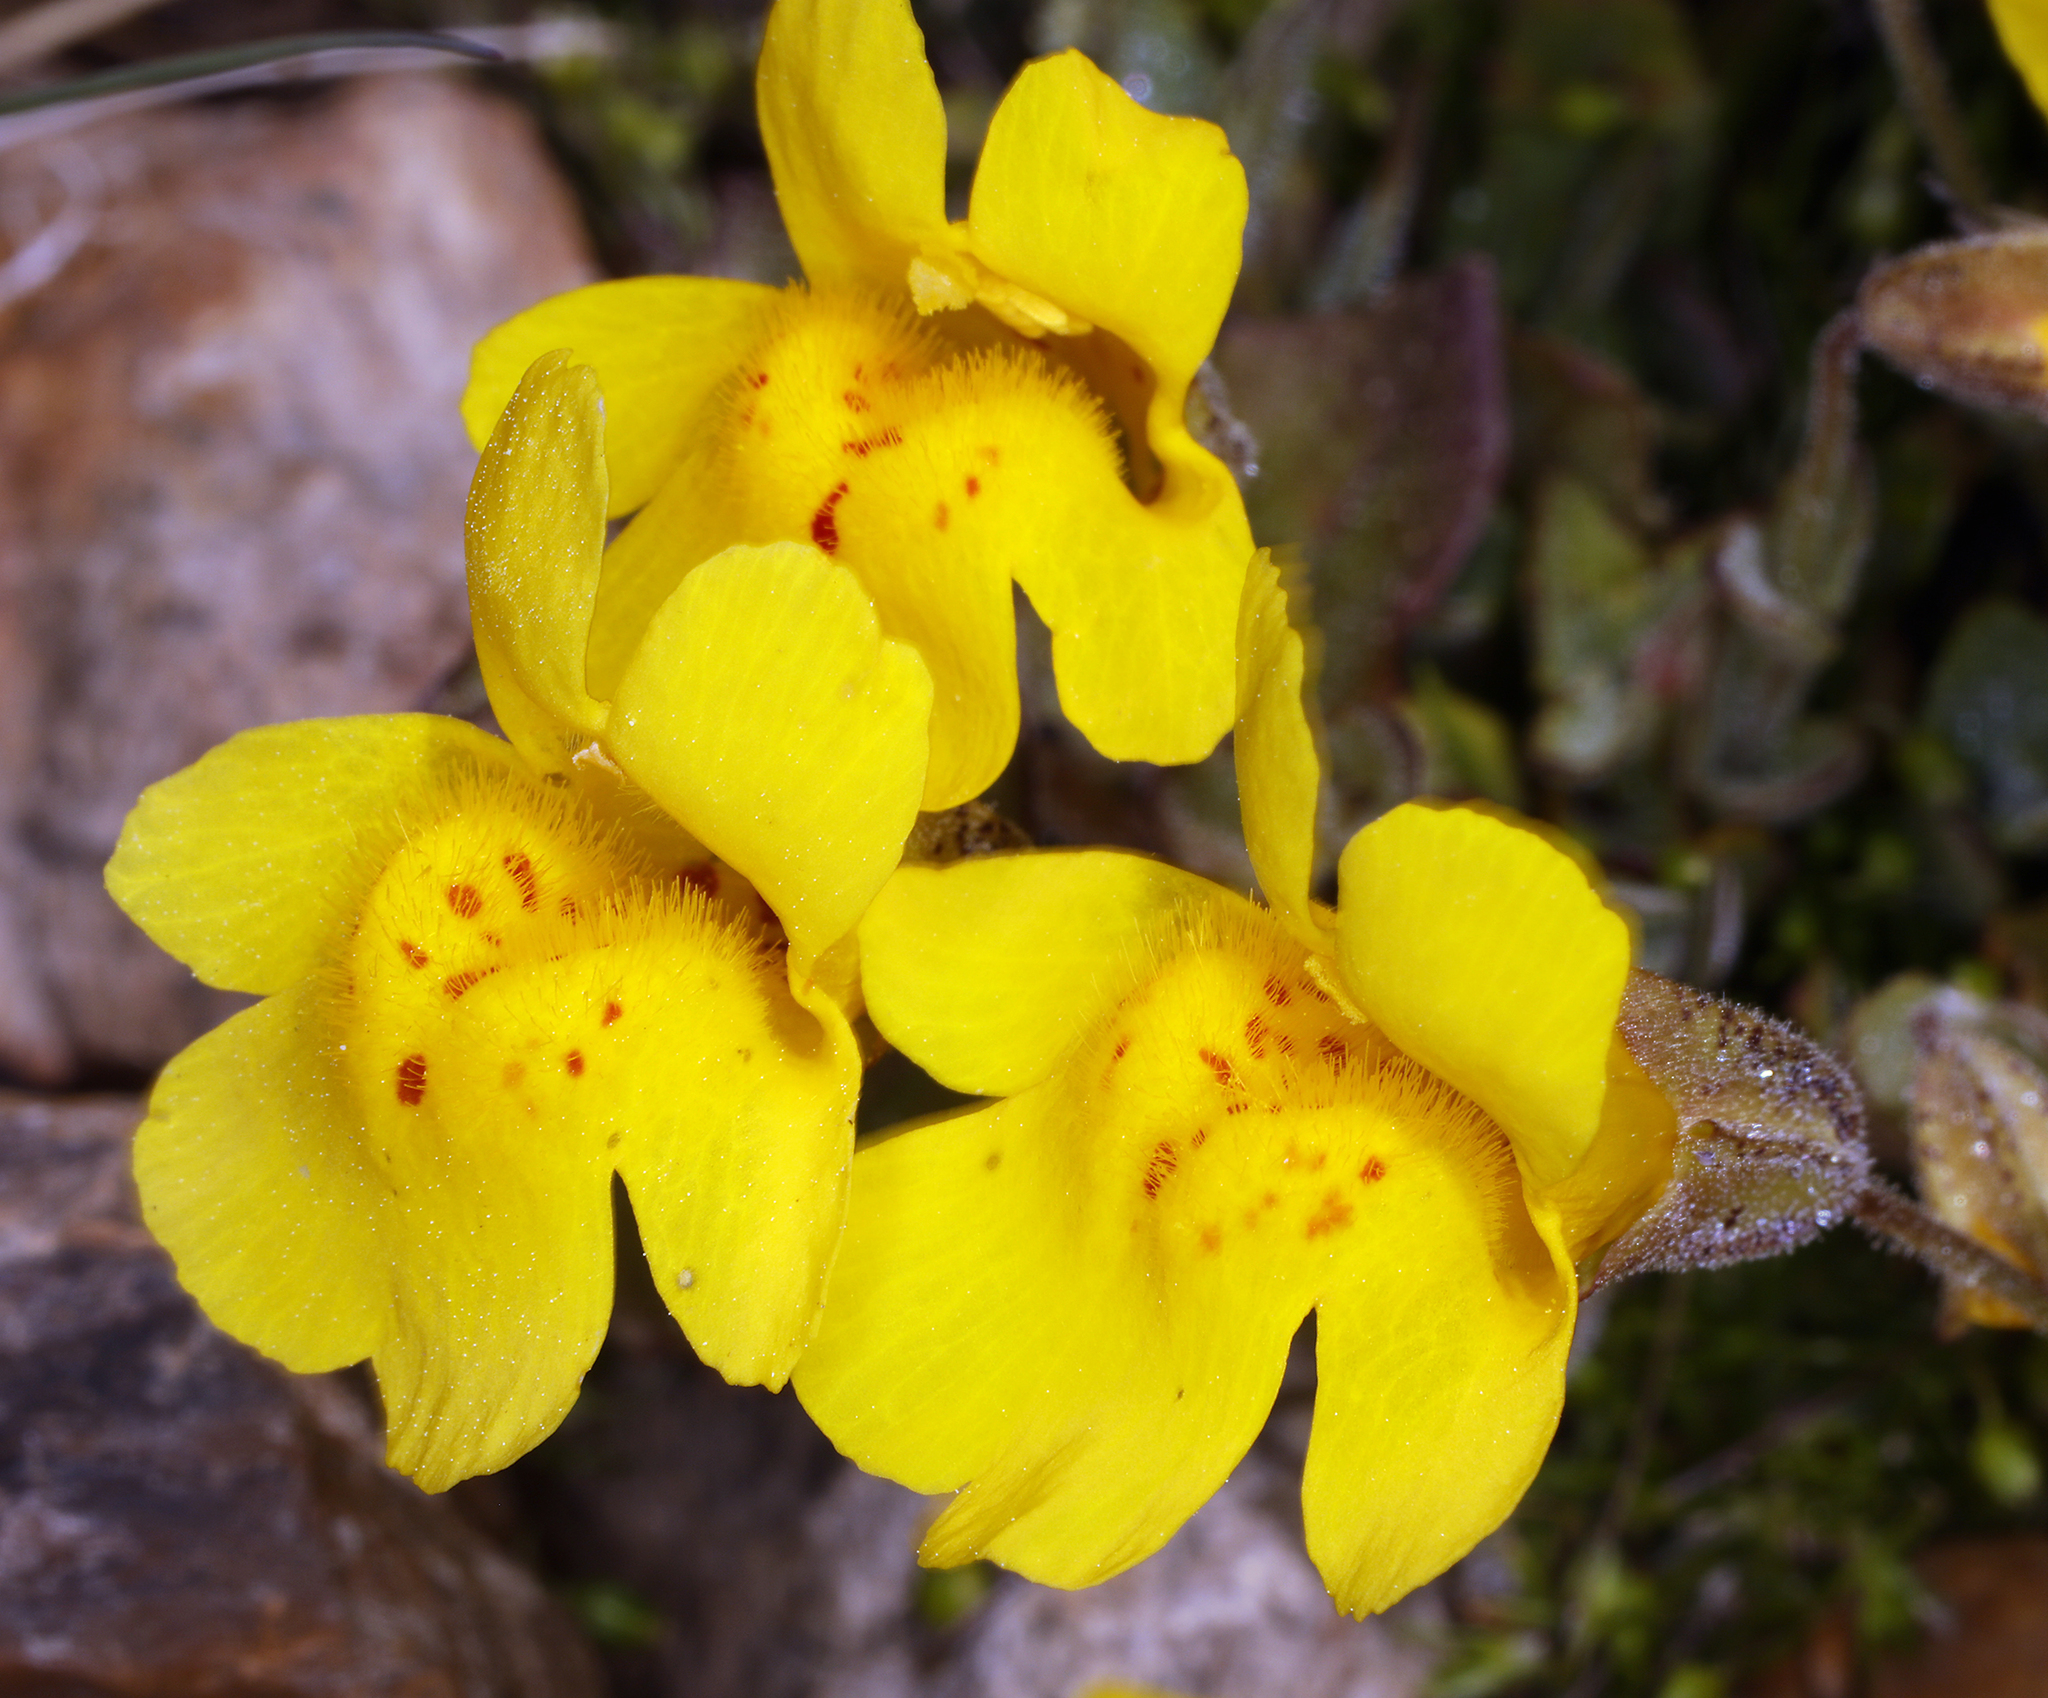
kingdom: Plantae
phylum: Tracheophyta
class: Magnoliopsida
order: Lamiales
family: Phrymaceae
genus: Erythranthe
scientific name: Erythranthe tilingii
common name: Subalpine monkey-flower
